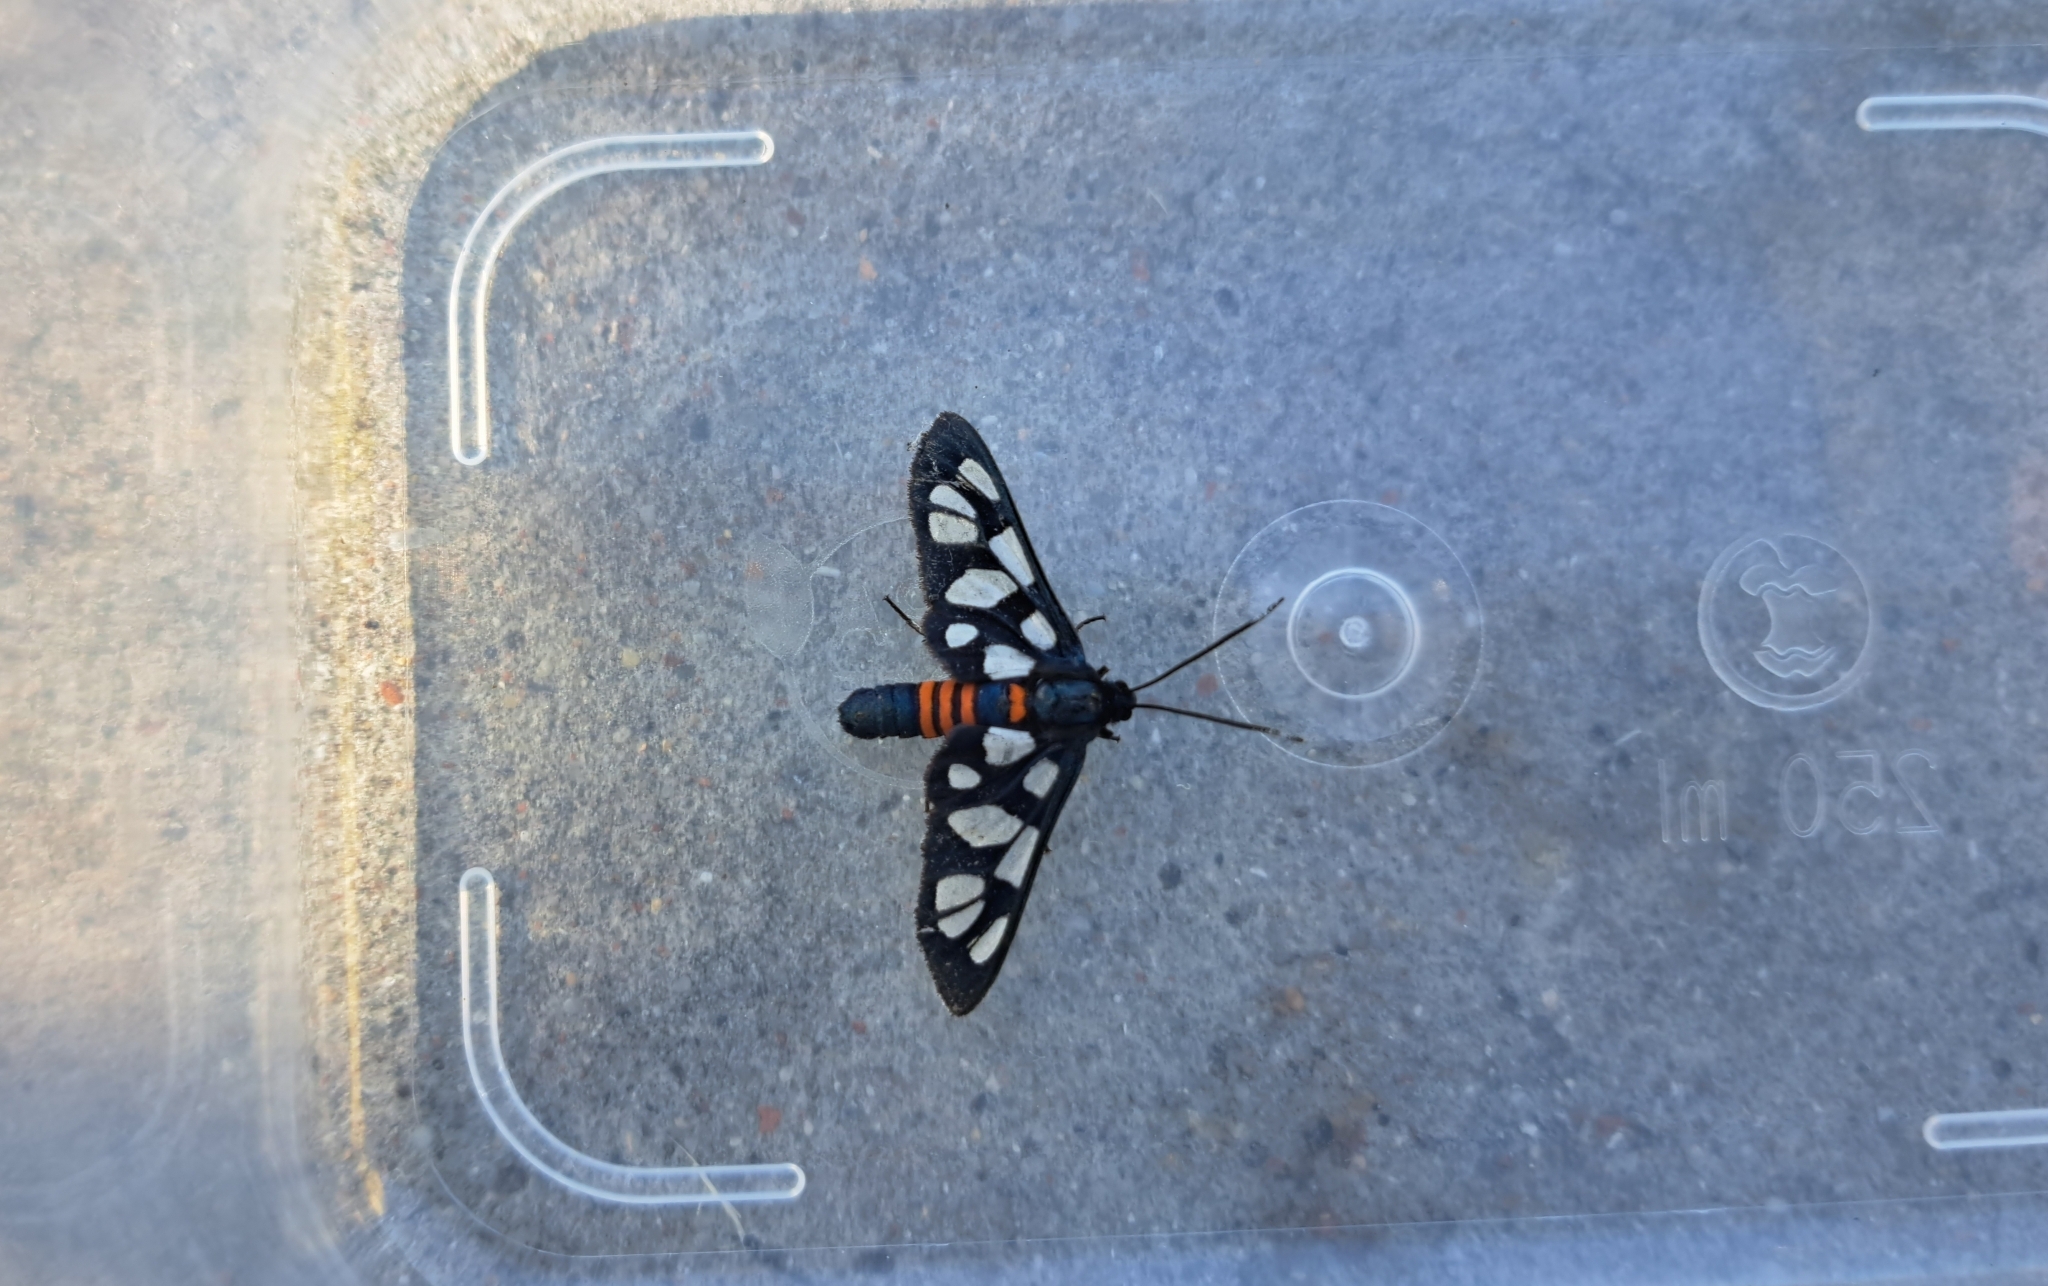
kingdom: Animalia
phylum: Arthropoda
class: Insecta
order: Lepidoptera
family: Erebidae
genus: Amata
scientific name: Amata cerbera
